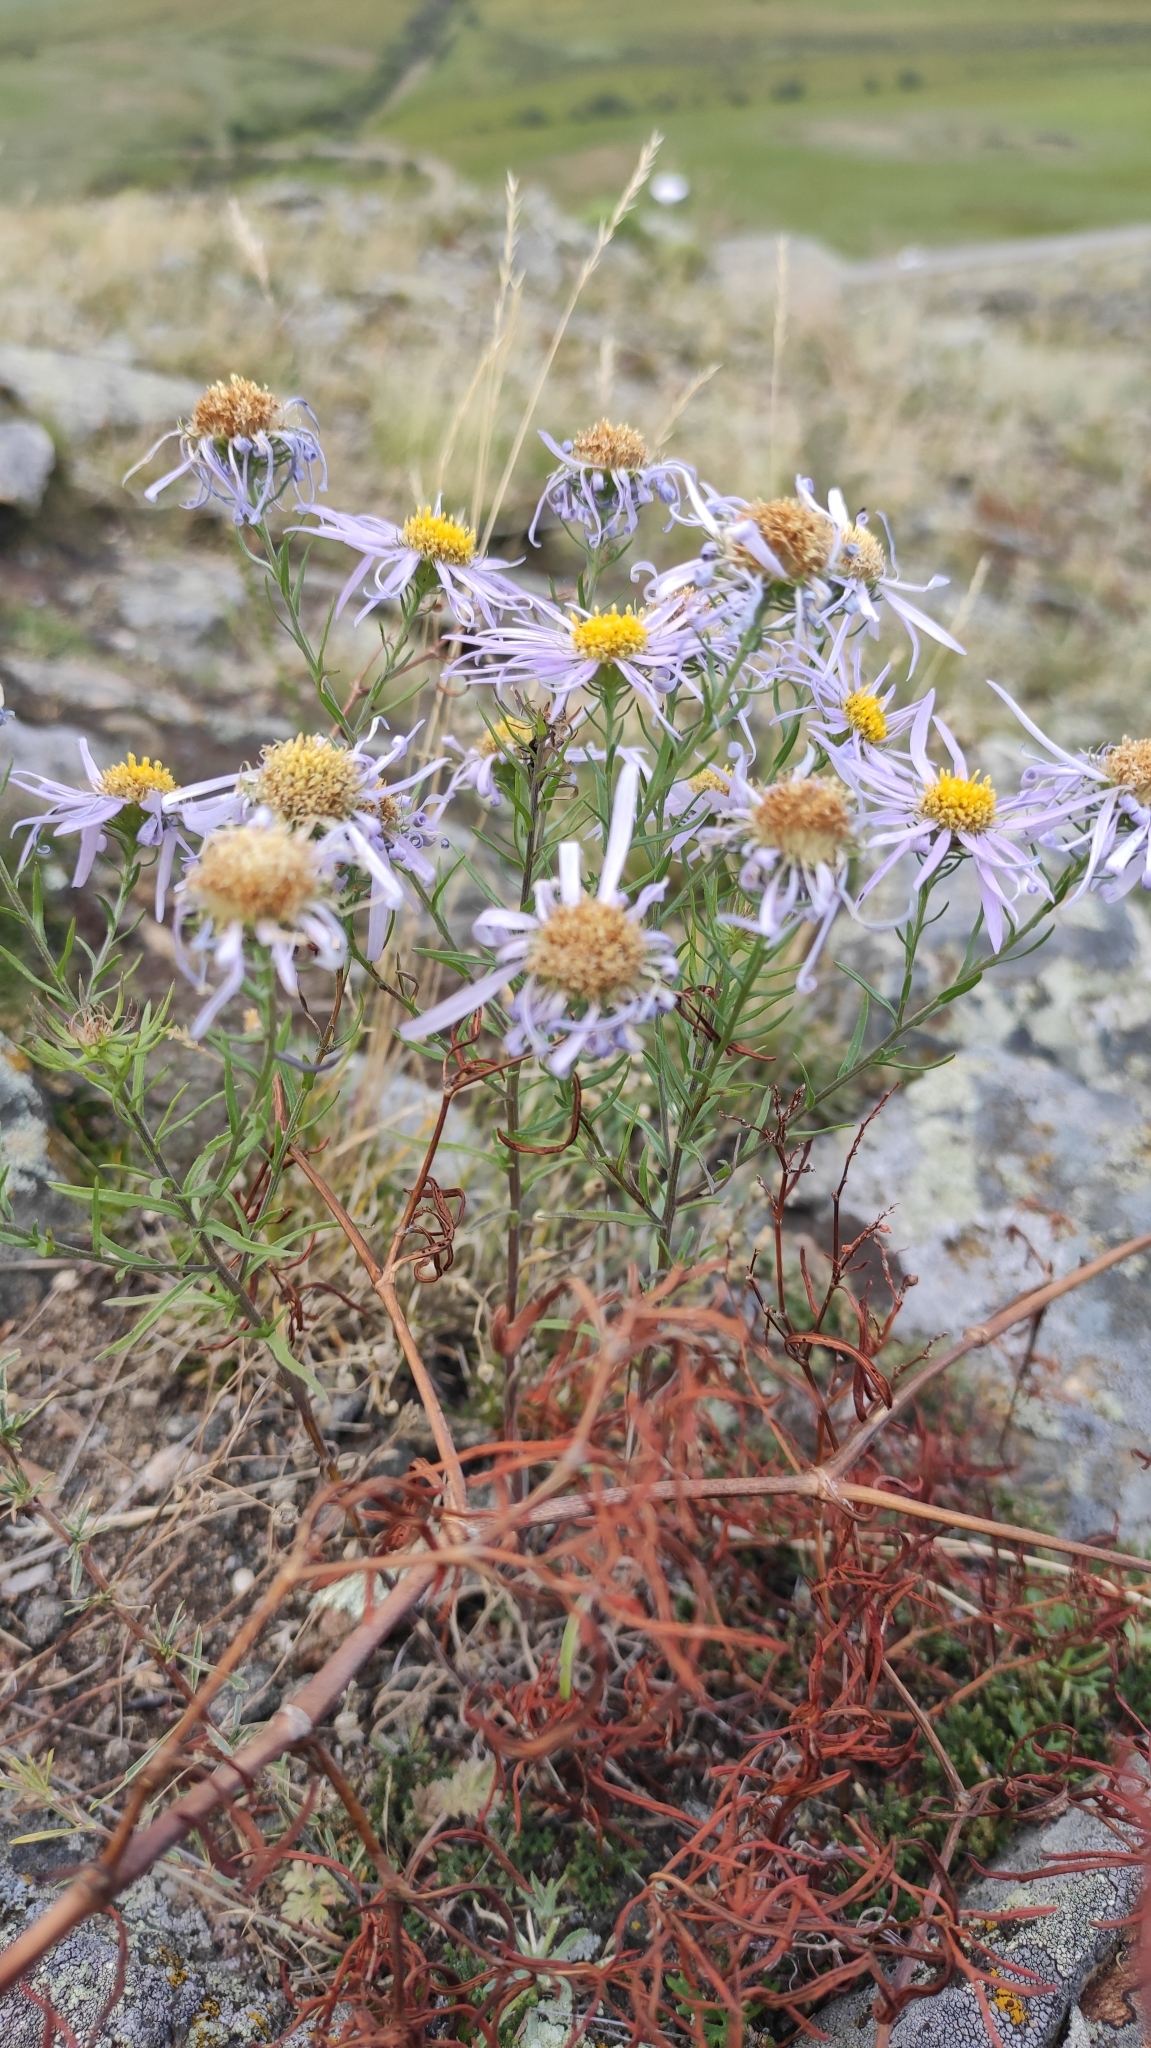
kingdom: Plantae
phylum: Tracheophyta
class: Magnoliopsida
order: Asterales
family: Asteraceae
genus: Aster
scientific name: Aster biennis
